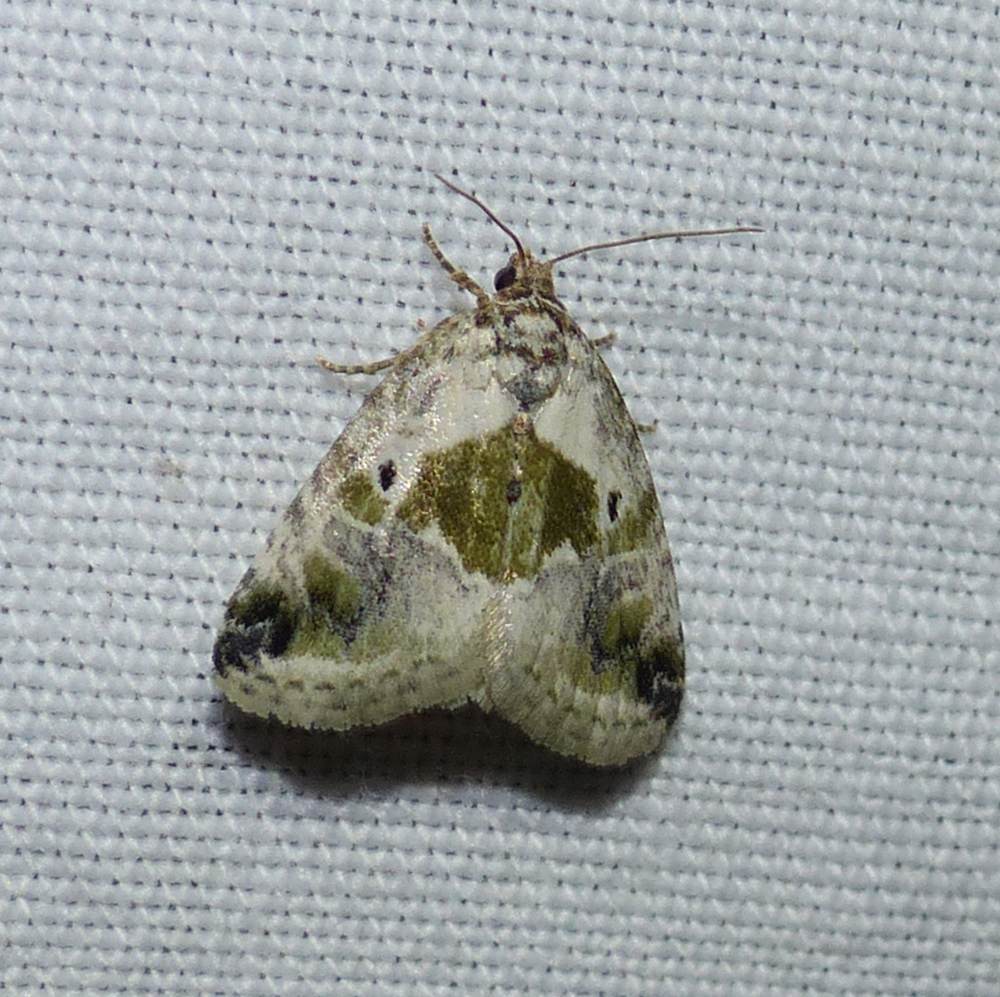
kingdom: Animalia
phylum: Arthropoda
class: Insecta
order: Lepidoptera
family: Noctuidae
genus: Maliattha
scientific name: Maliattha synochitis
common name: Black-dotted glyph
